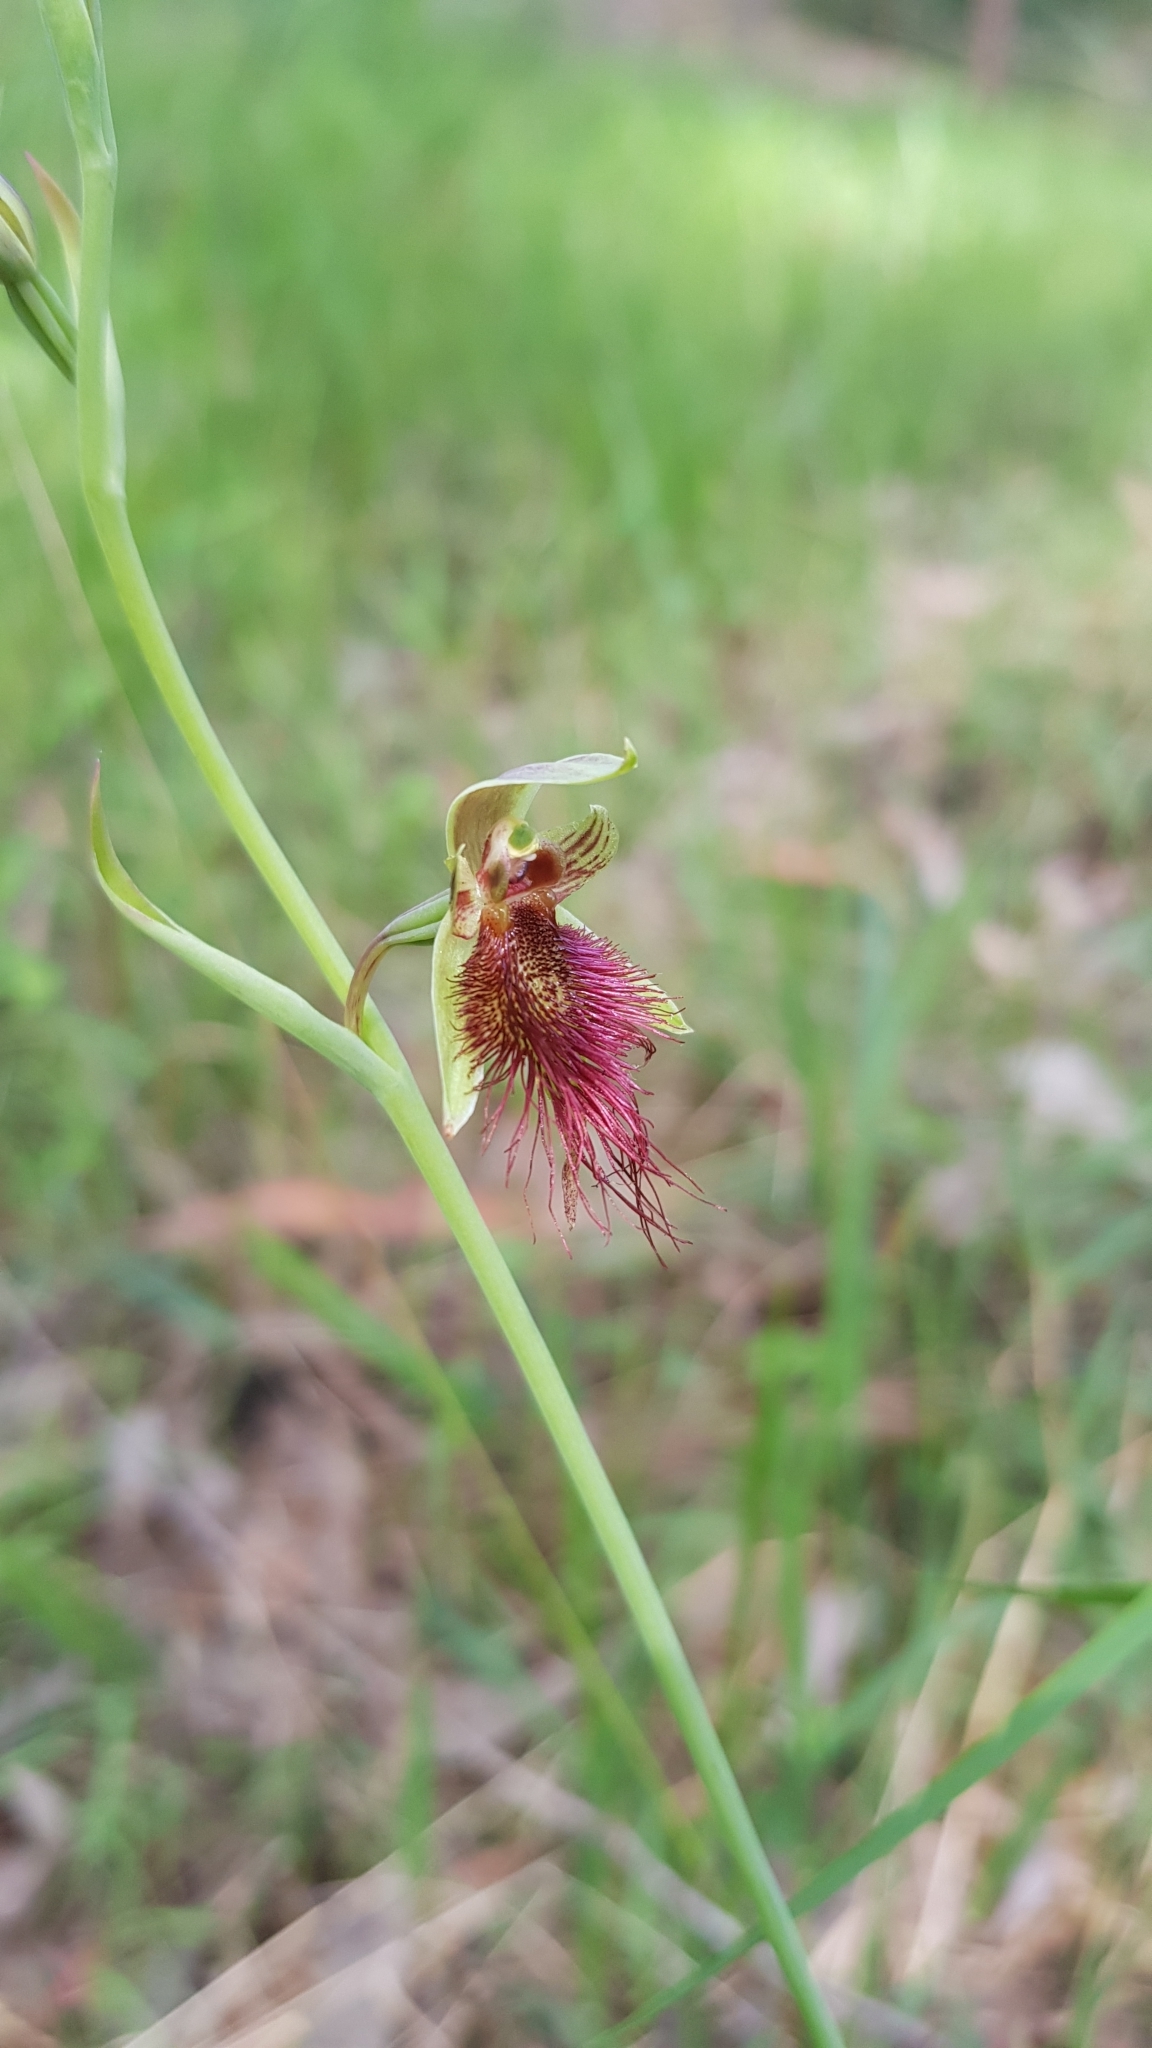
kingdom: Plantae
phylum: Tracheophyta
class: Liliopsida
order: Asparagales
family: Orchidaceae
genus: Calochilus
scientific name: Calochilus paludosus
